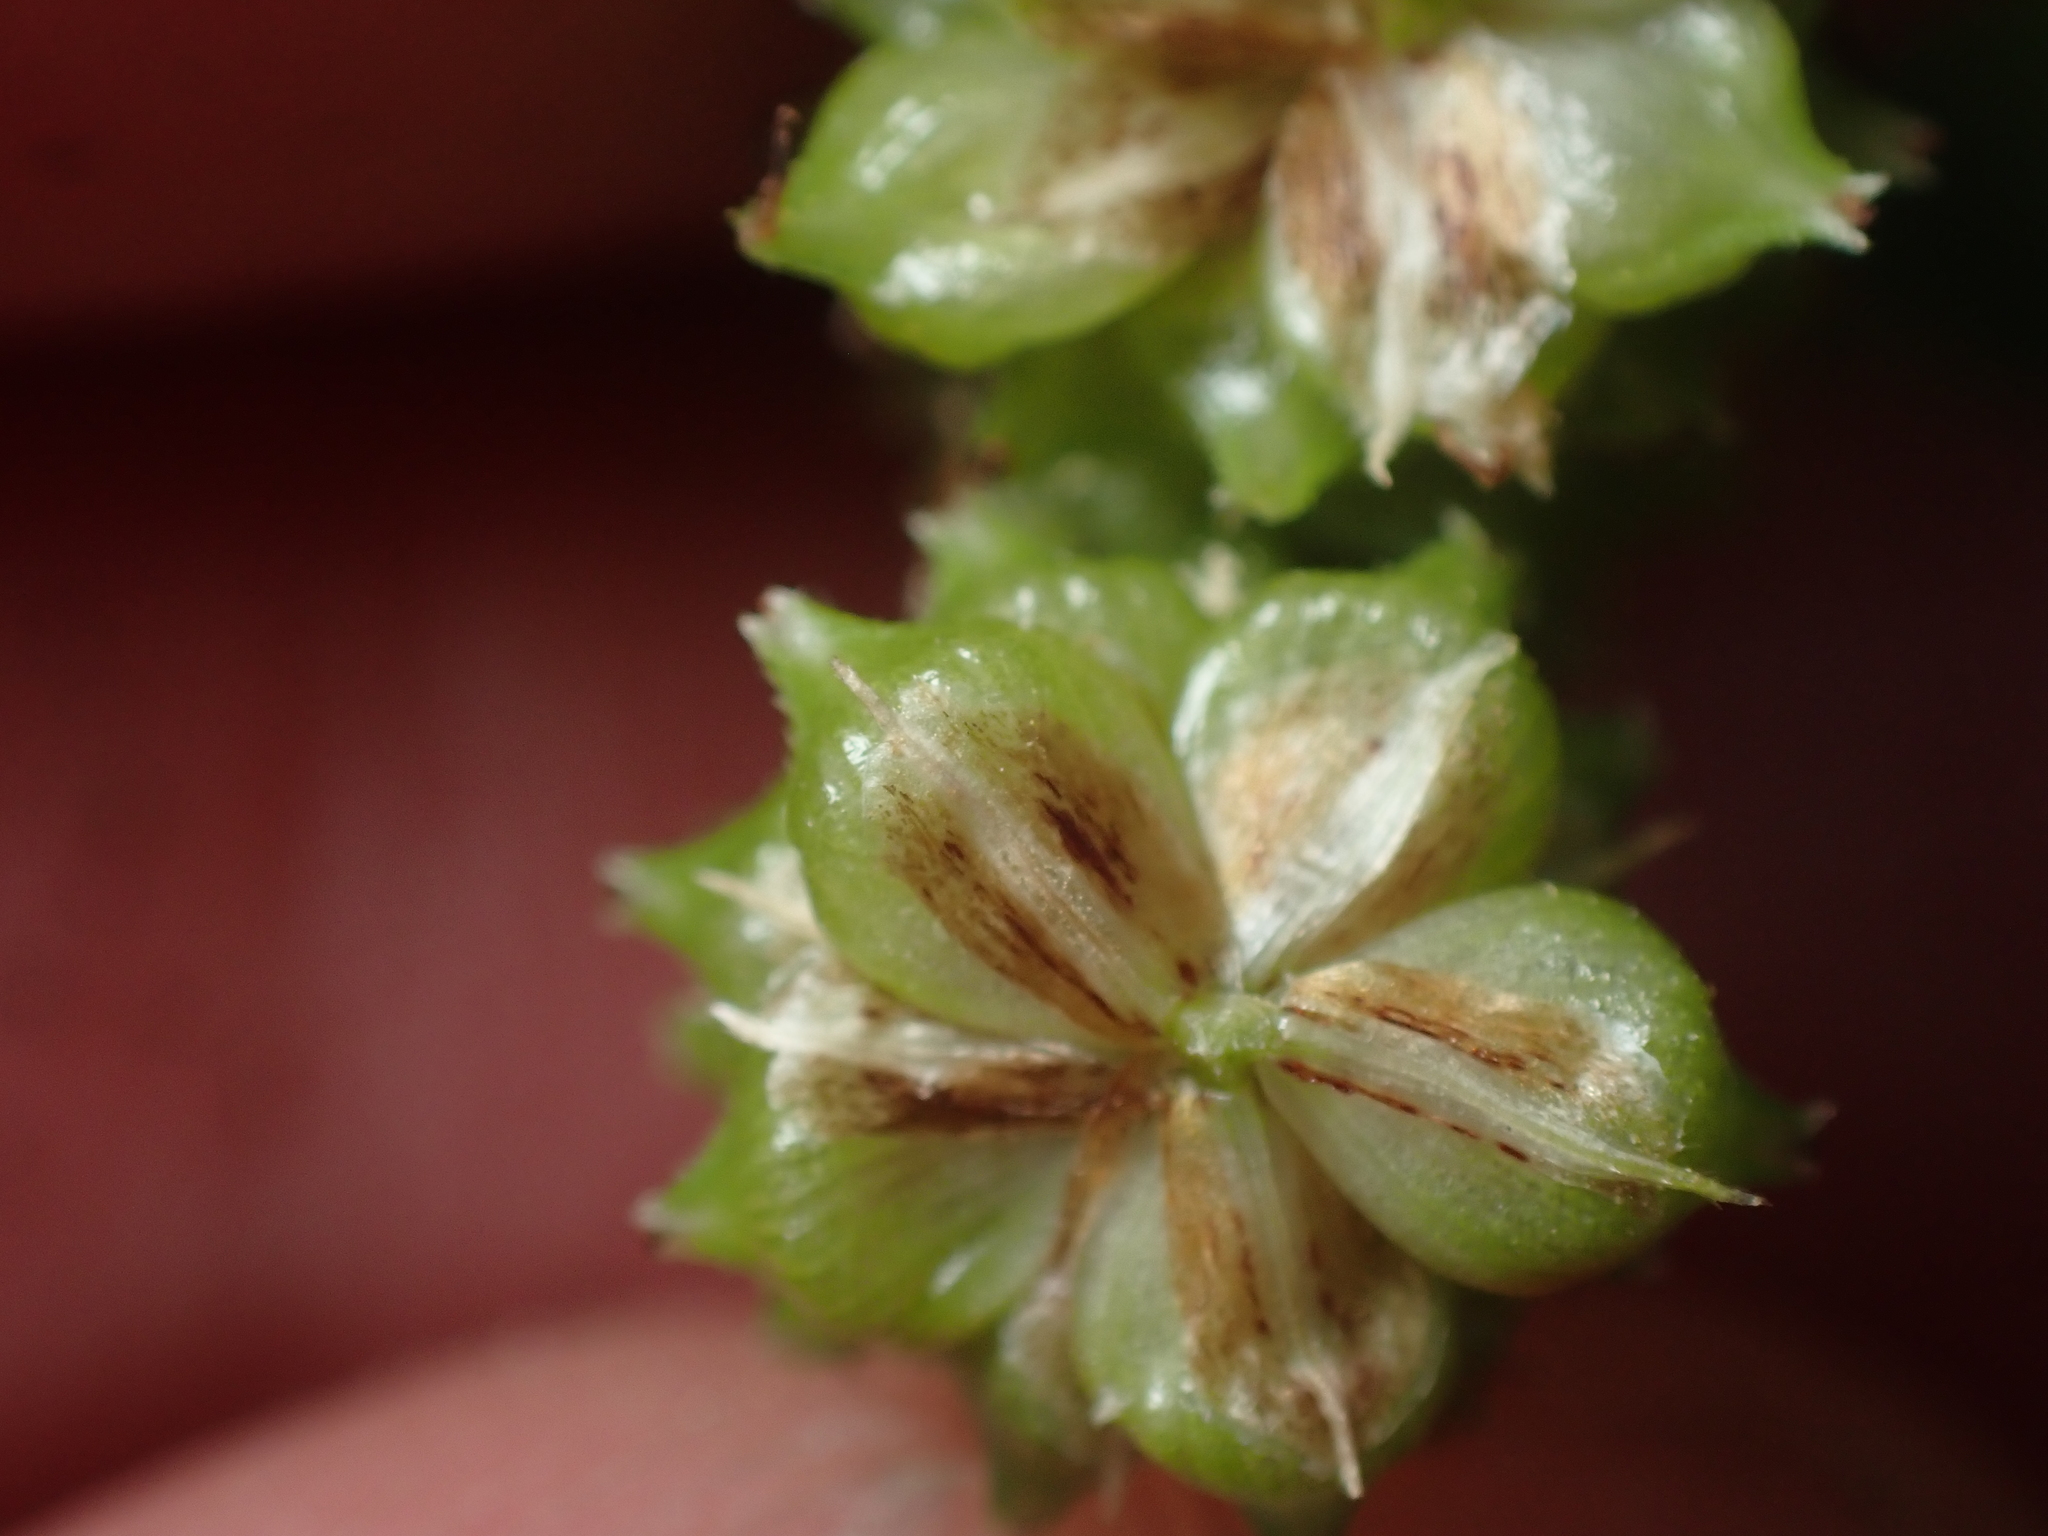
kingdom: Plantae
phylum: Tracheophyta
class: Liliopsida
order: Poales
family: Cyperaceae
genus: Carex
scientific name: Carex goyenii
